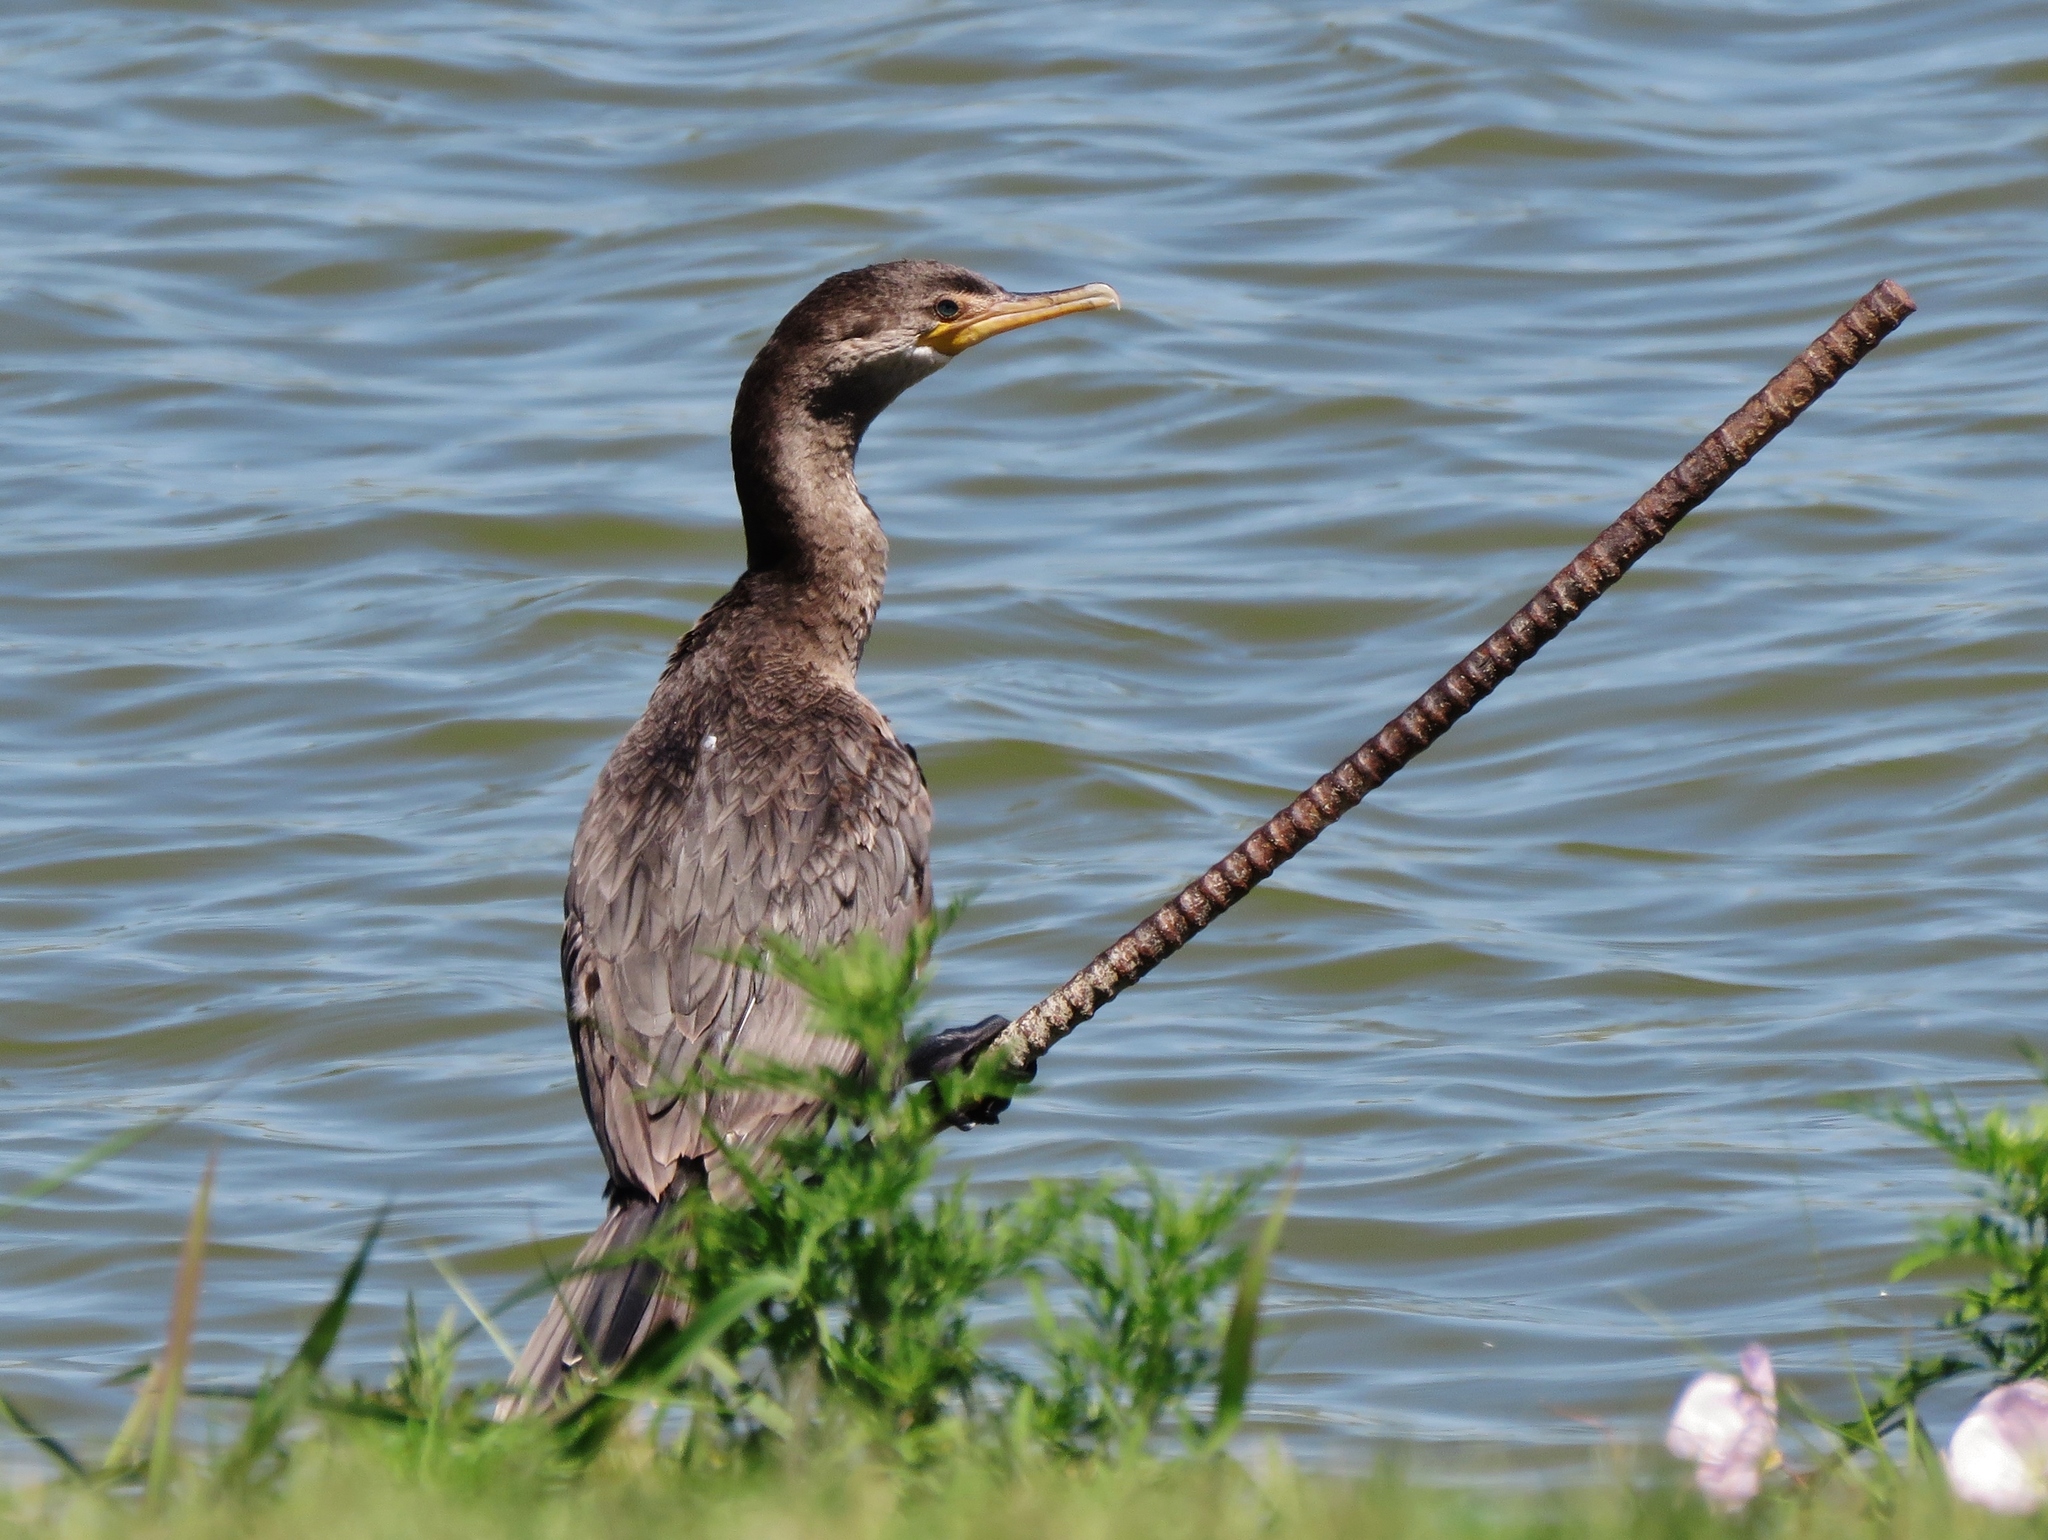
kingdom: Animalia
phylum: Chordata
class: Aves
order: Suliformes
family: Phalacrocoracidae
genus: Phalacrocorax
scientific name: Phalacrocorax brasilianus
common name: Neotropic cormorant
